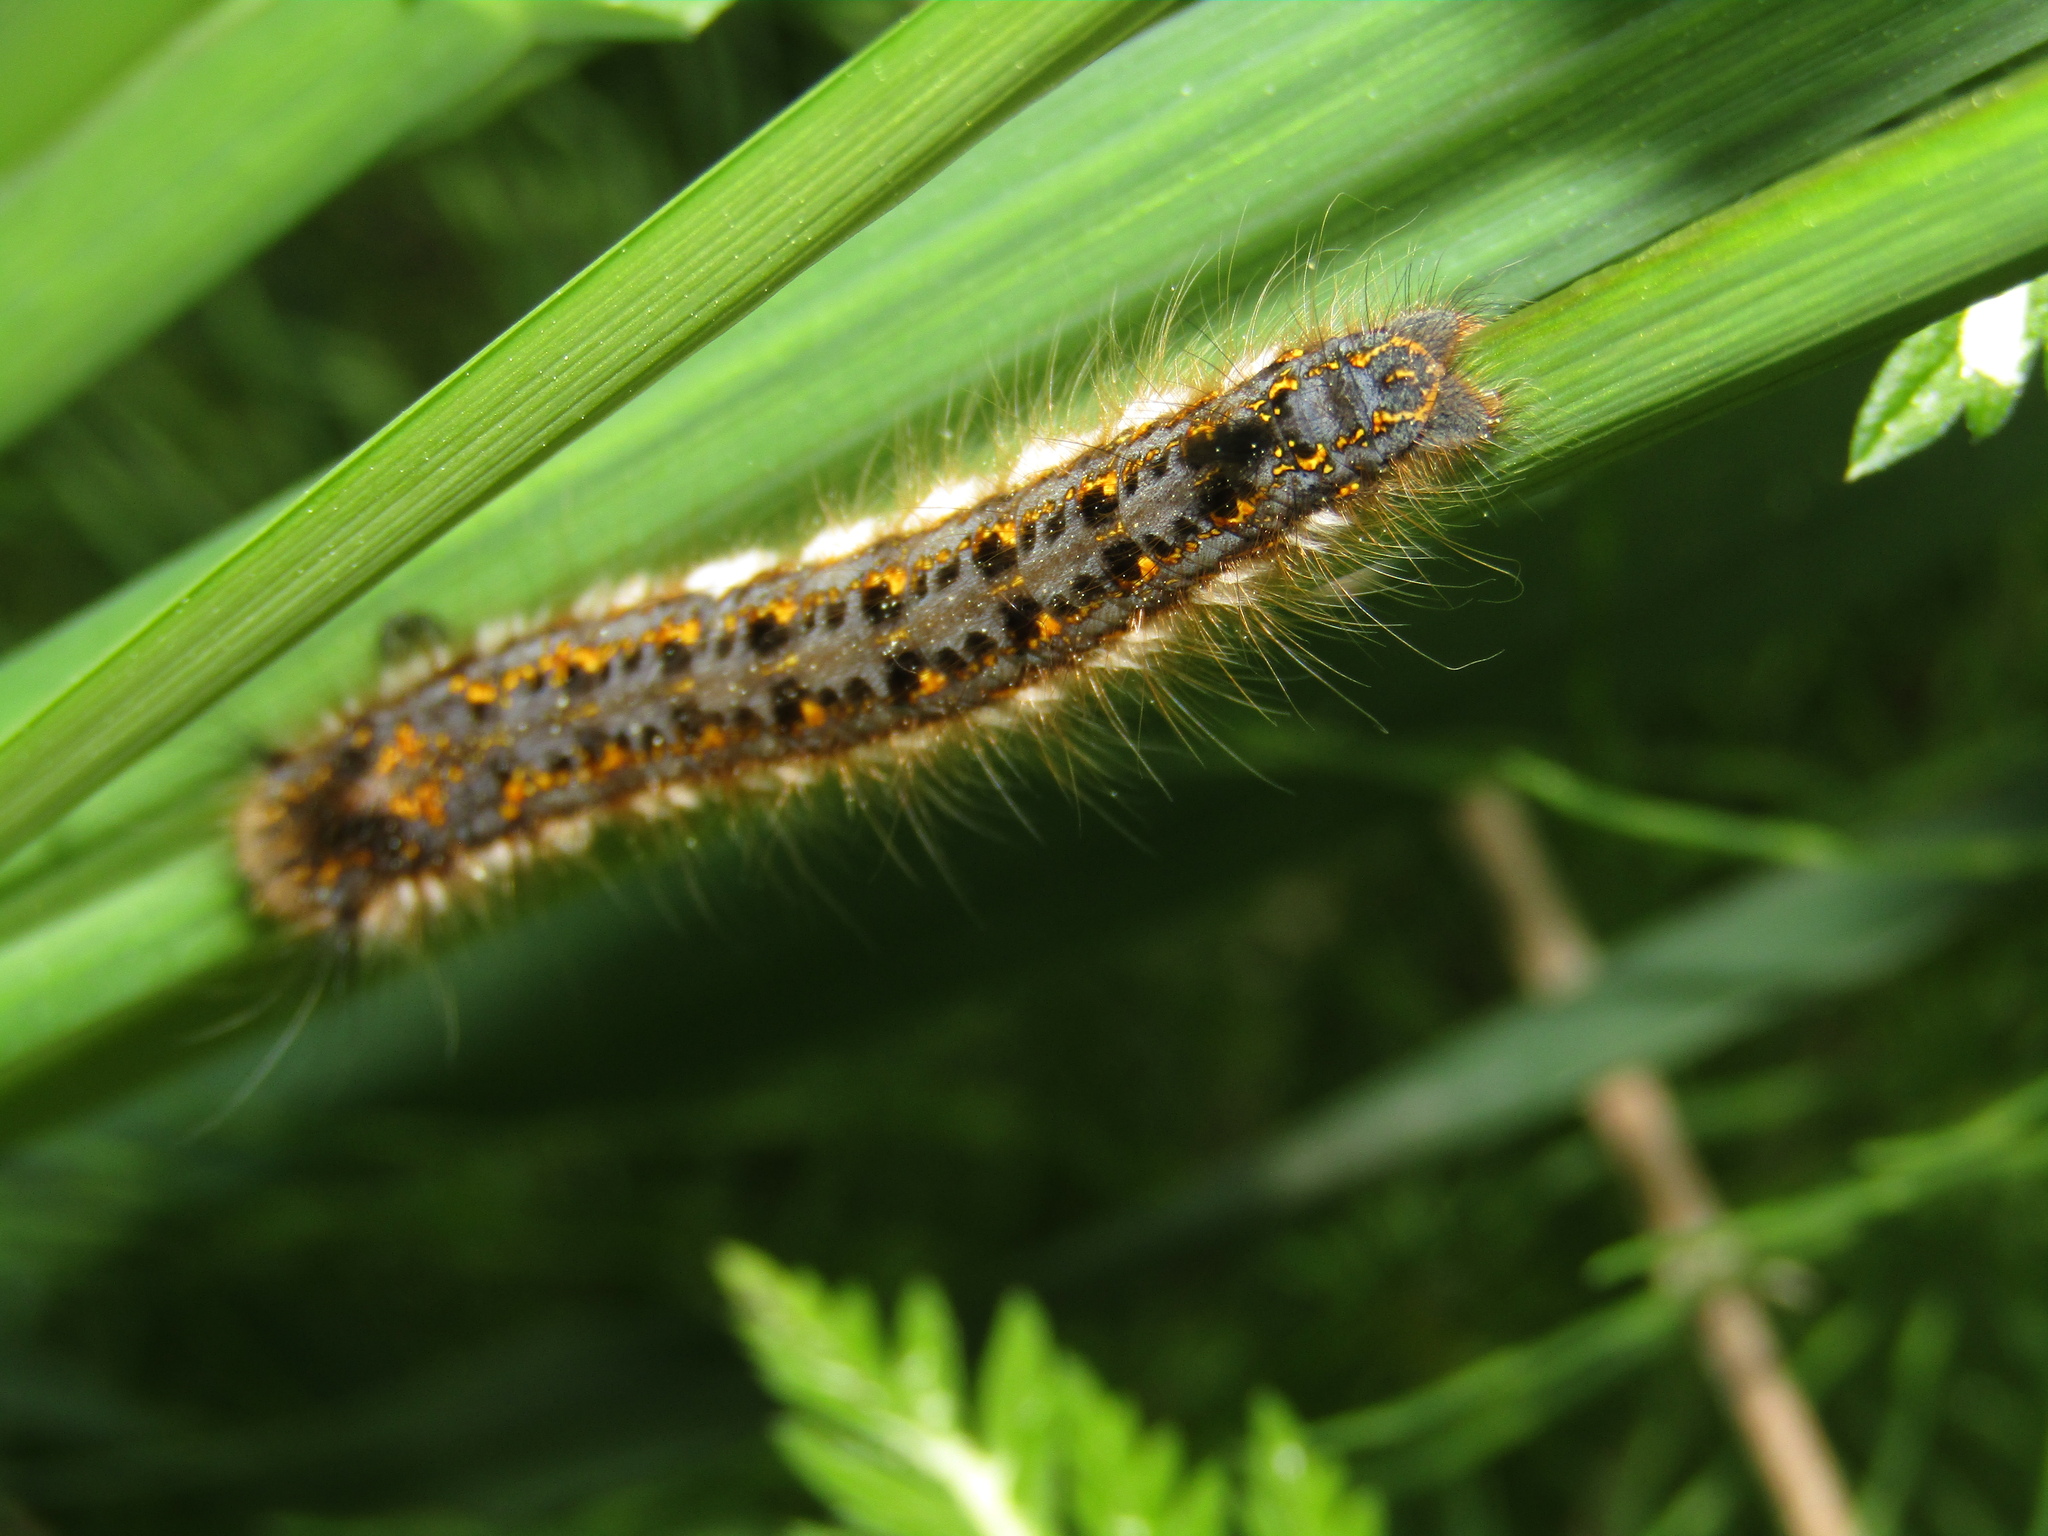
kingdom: Animalia
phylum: Arthropoda
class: Insecta
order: Lepidoptera
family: Lasiocampidae
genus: Euthrix
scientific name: Euthrix potatoria
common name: Drinker
